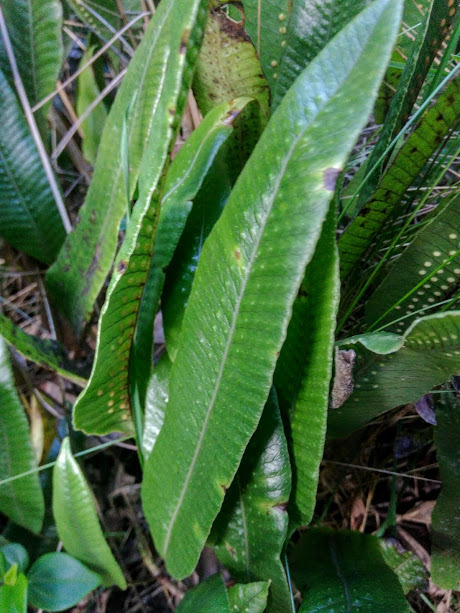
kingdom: Plantae
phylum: Tracheophyta
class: Polypodiopsida
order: Polypodiales
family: Polypodiaceae
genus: Serpocaulon
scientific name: Serpocaulon levigatum
